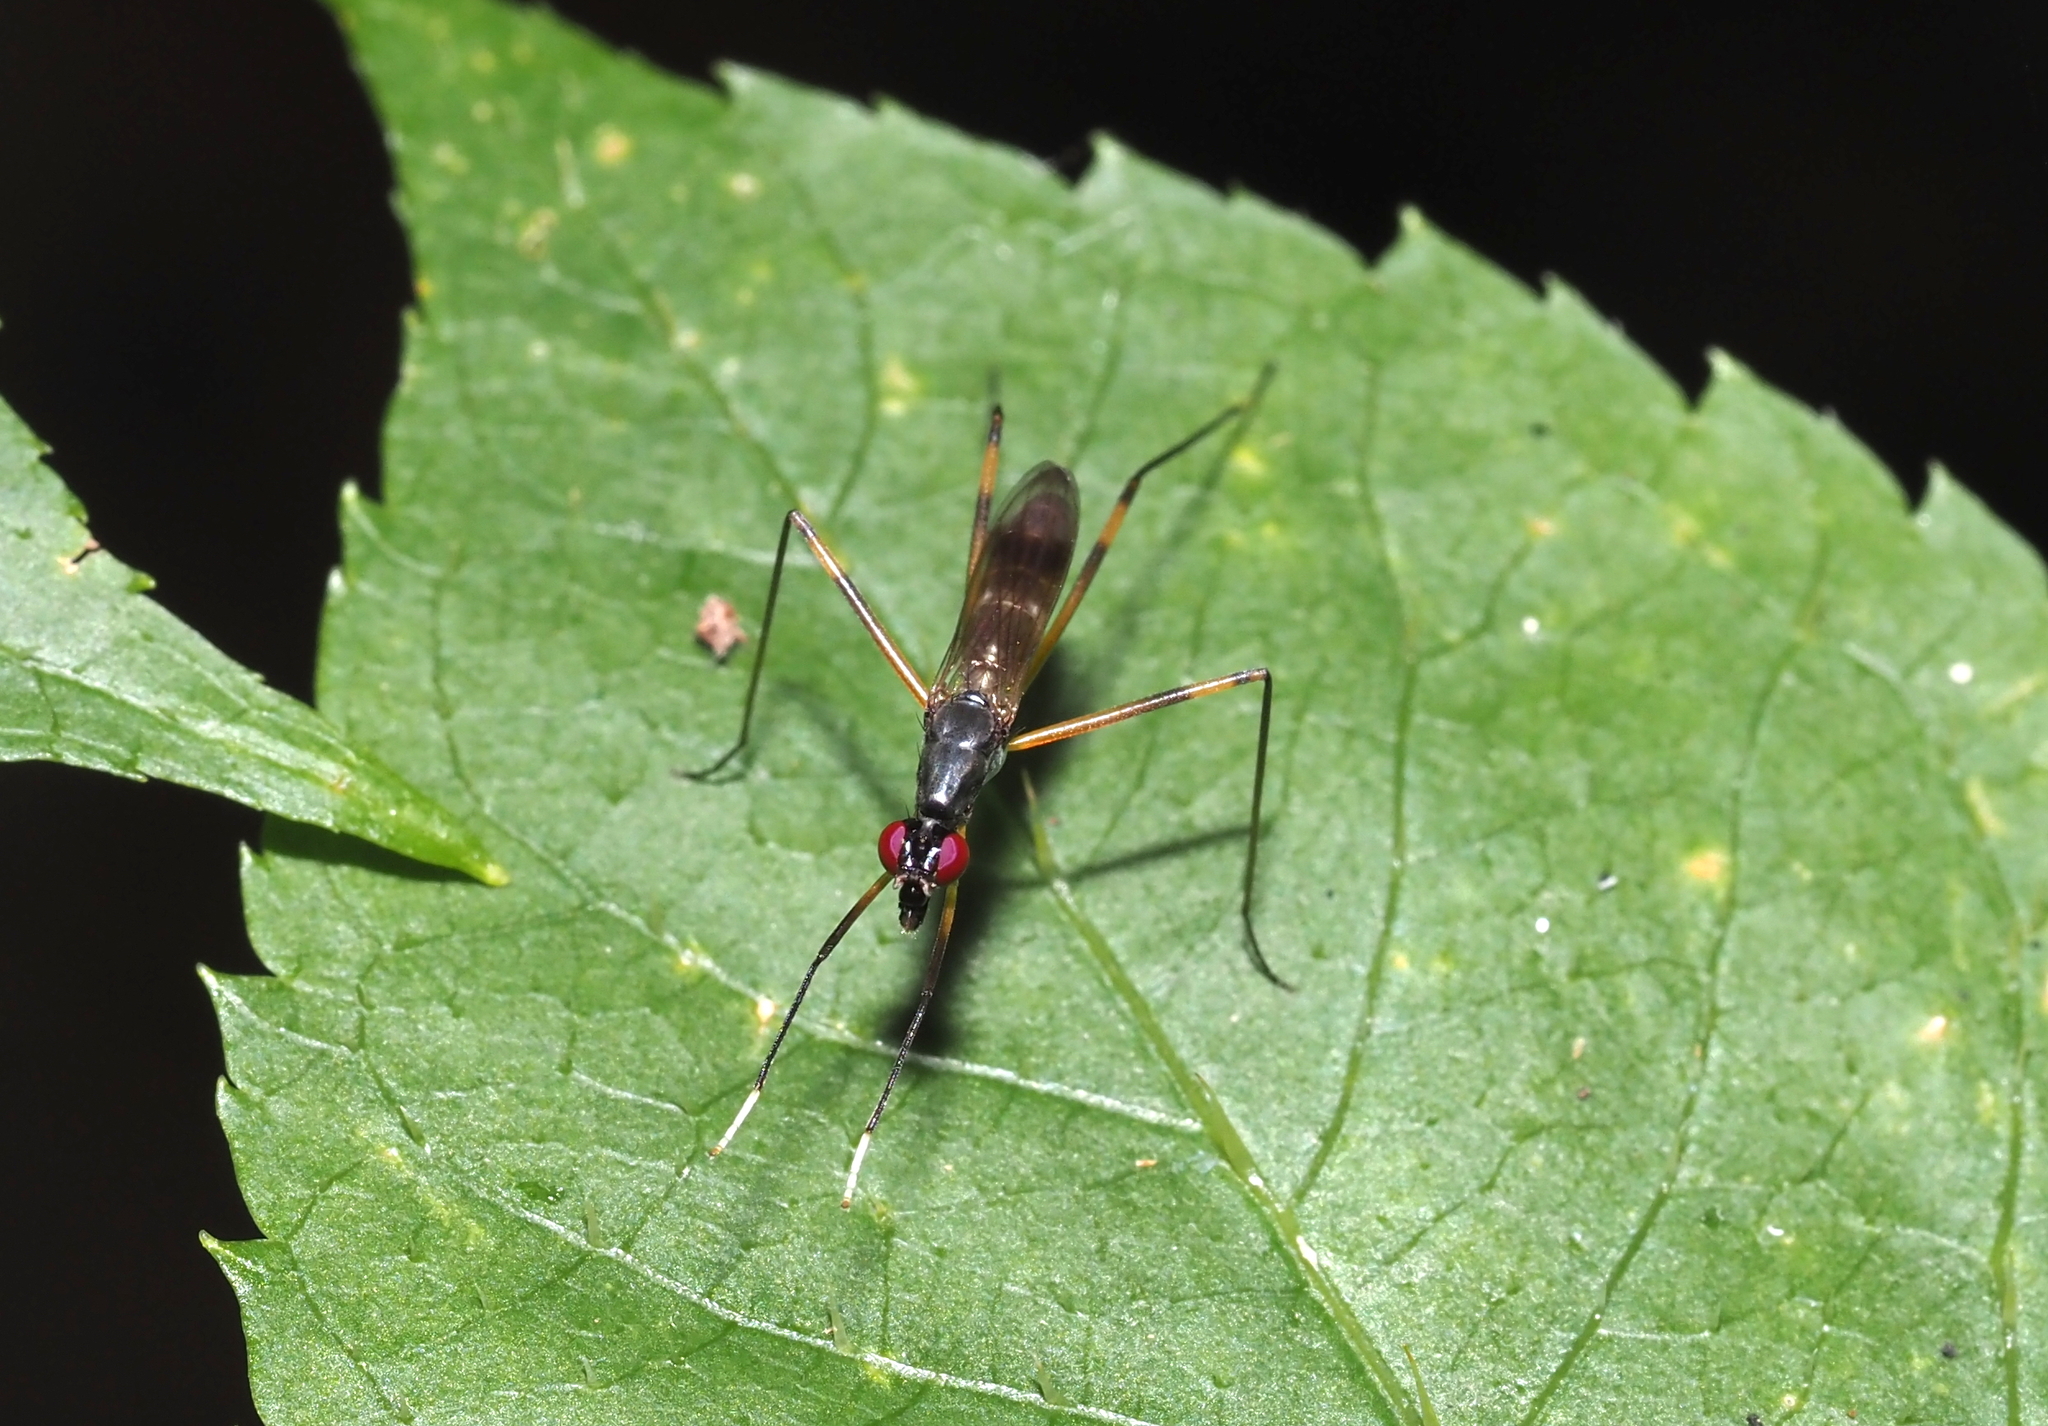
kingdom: Animalia
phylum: Arthropoda
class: Insecta
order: Diptera
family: Micropezidae
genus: Rainieria
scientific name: Rainieria antennaepes
